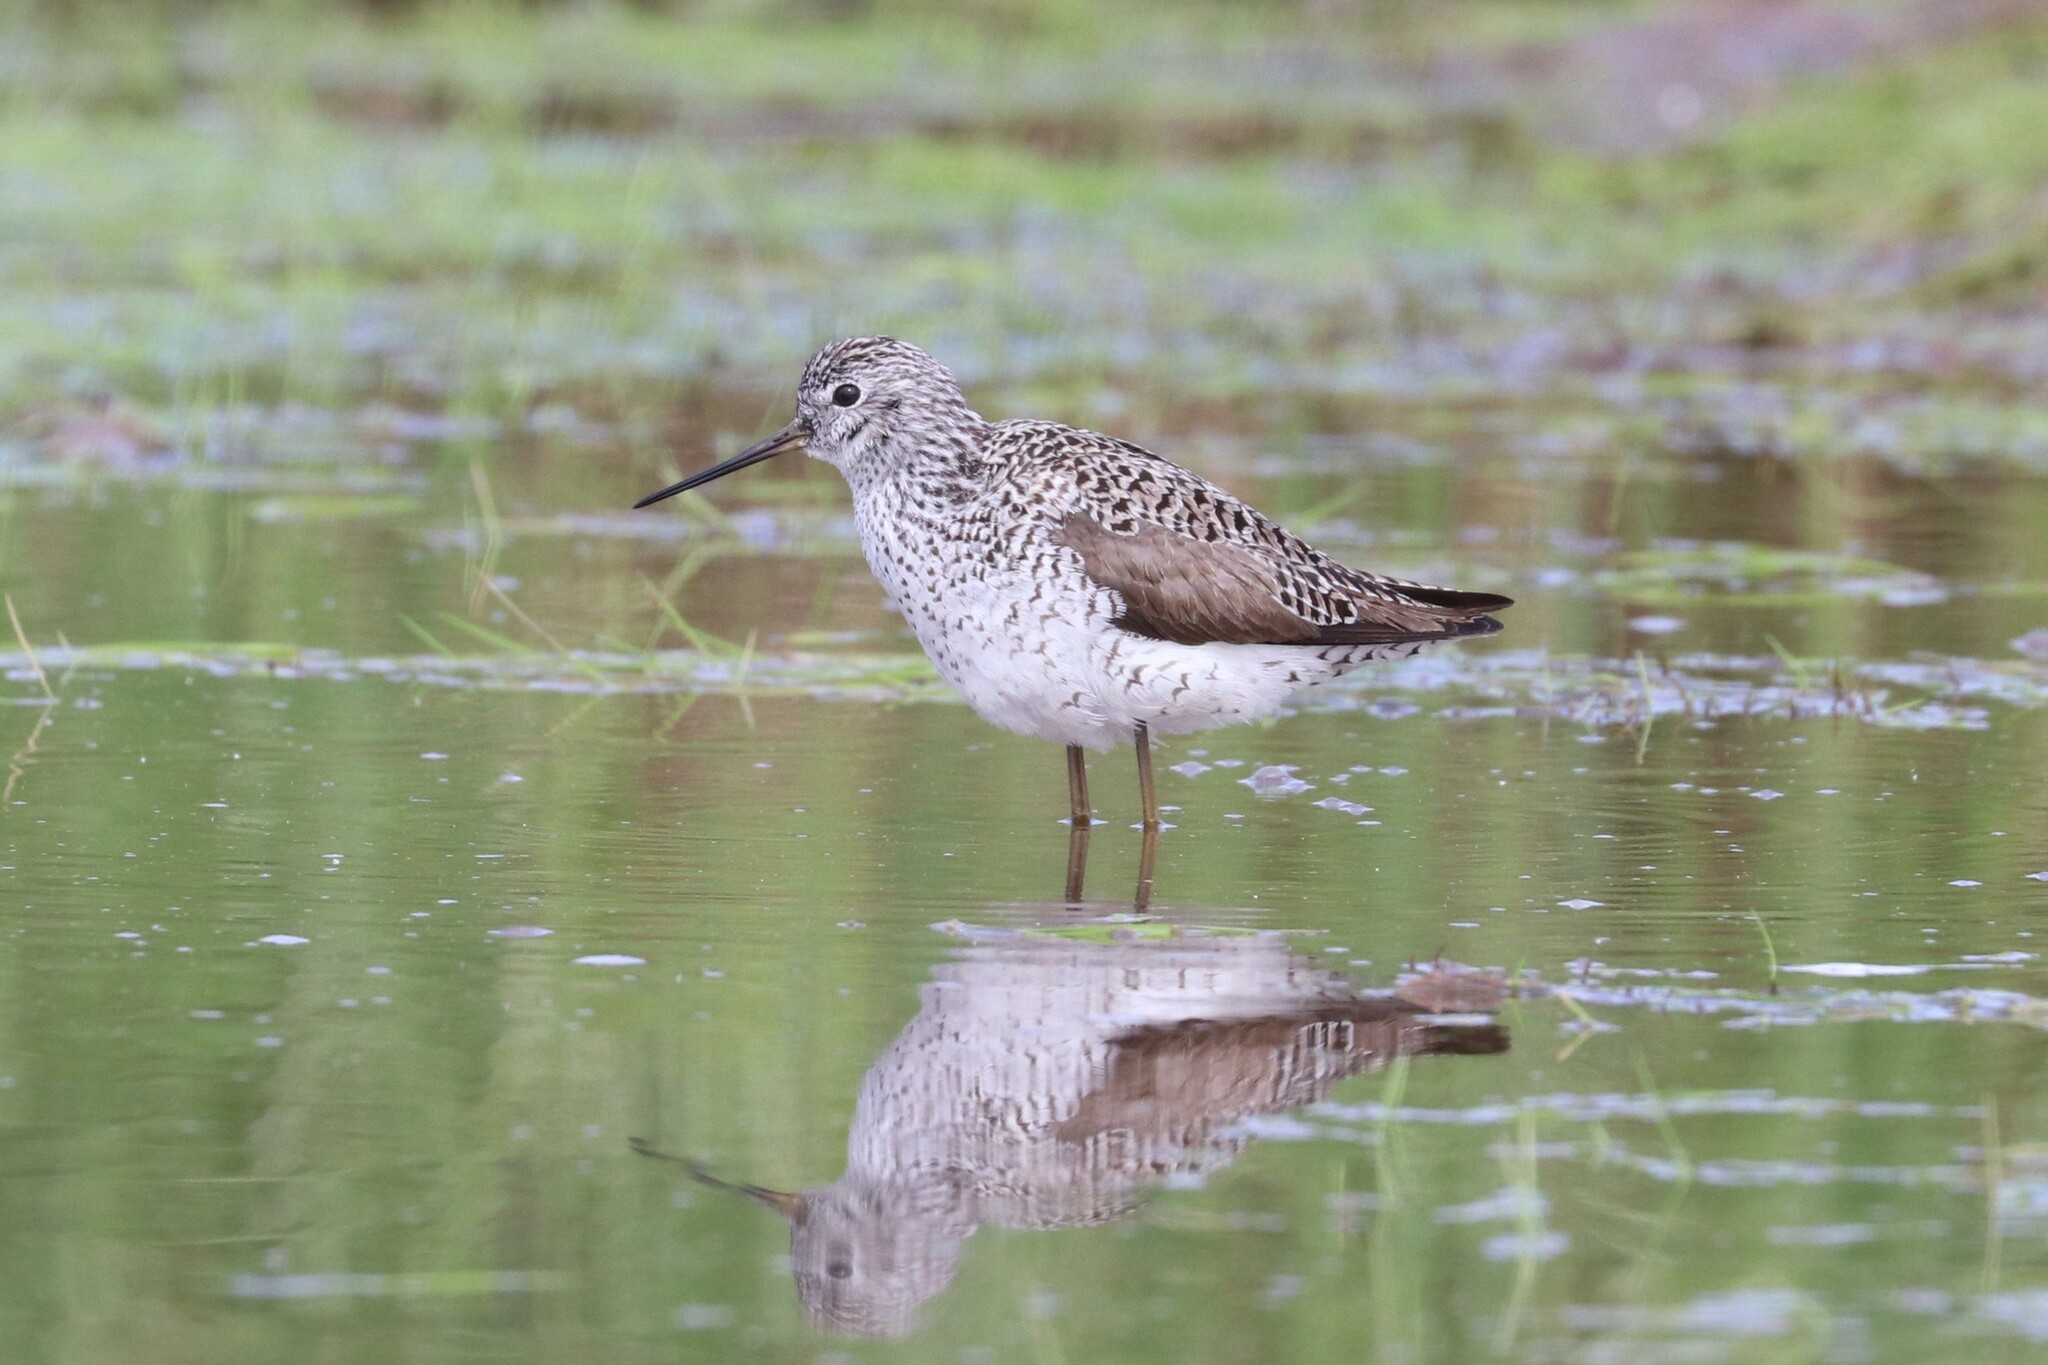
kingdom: Animalia
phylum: Chordata
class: Aves
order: Charadriiformes
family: Scolopacidae
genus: Tringa
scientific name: Tringa stagnatilis
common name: Marsh sandpiper
